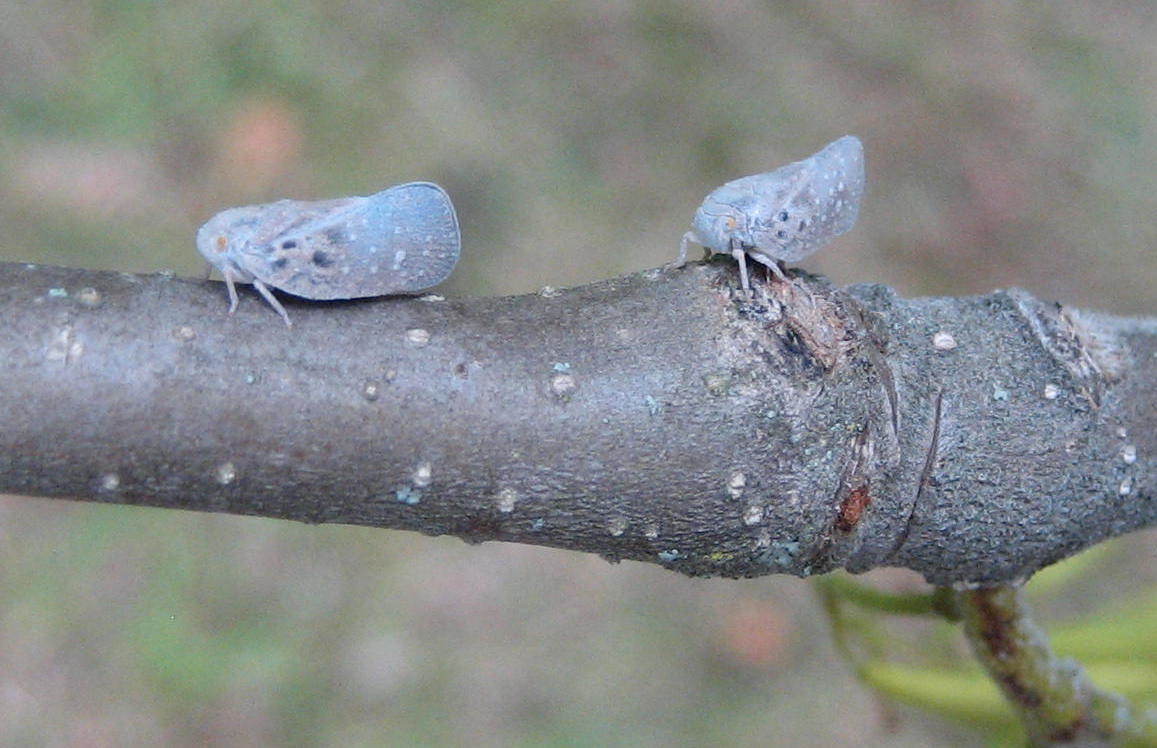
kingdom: Animalia
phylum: Arthropoda
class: Insecta
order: Hemiptera
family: Flatidae
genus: Metcalfa
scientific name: Metcalfa pruinosa
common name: Citrus flatid planthopper
